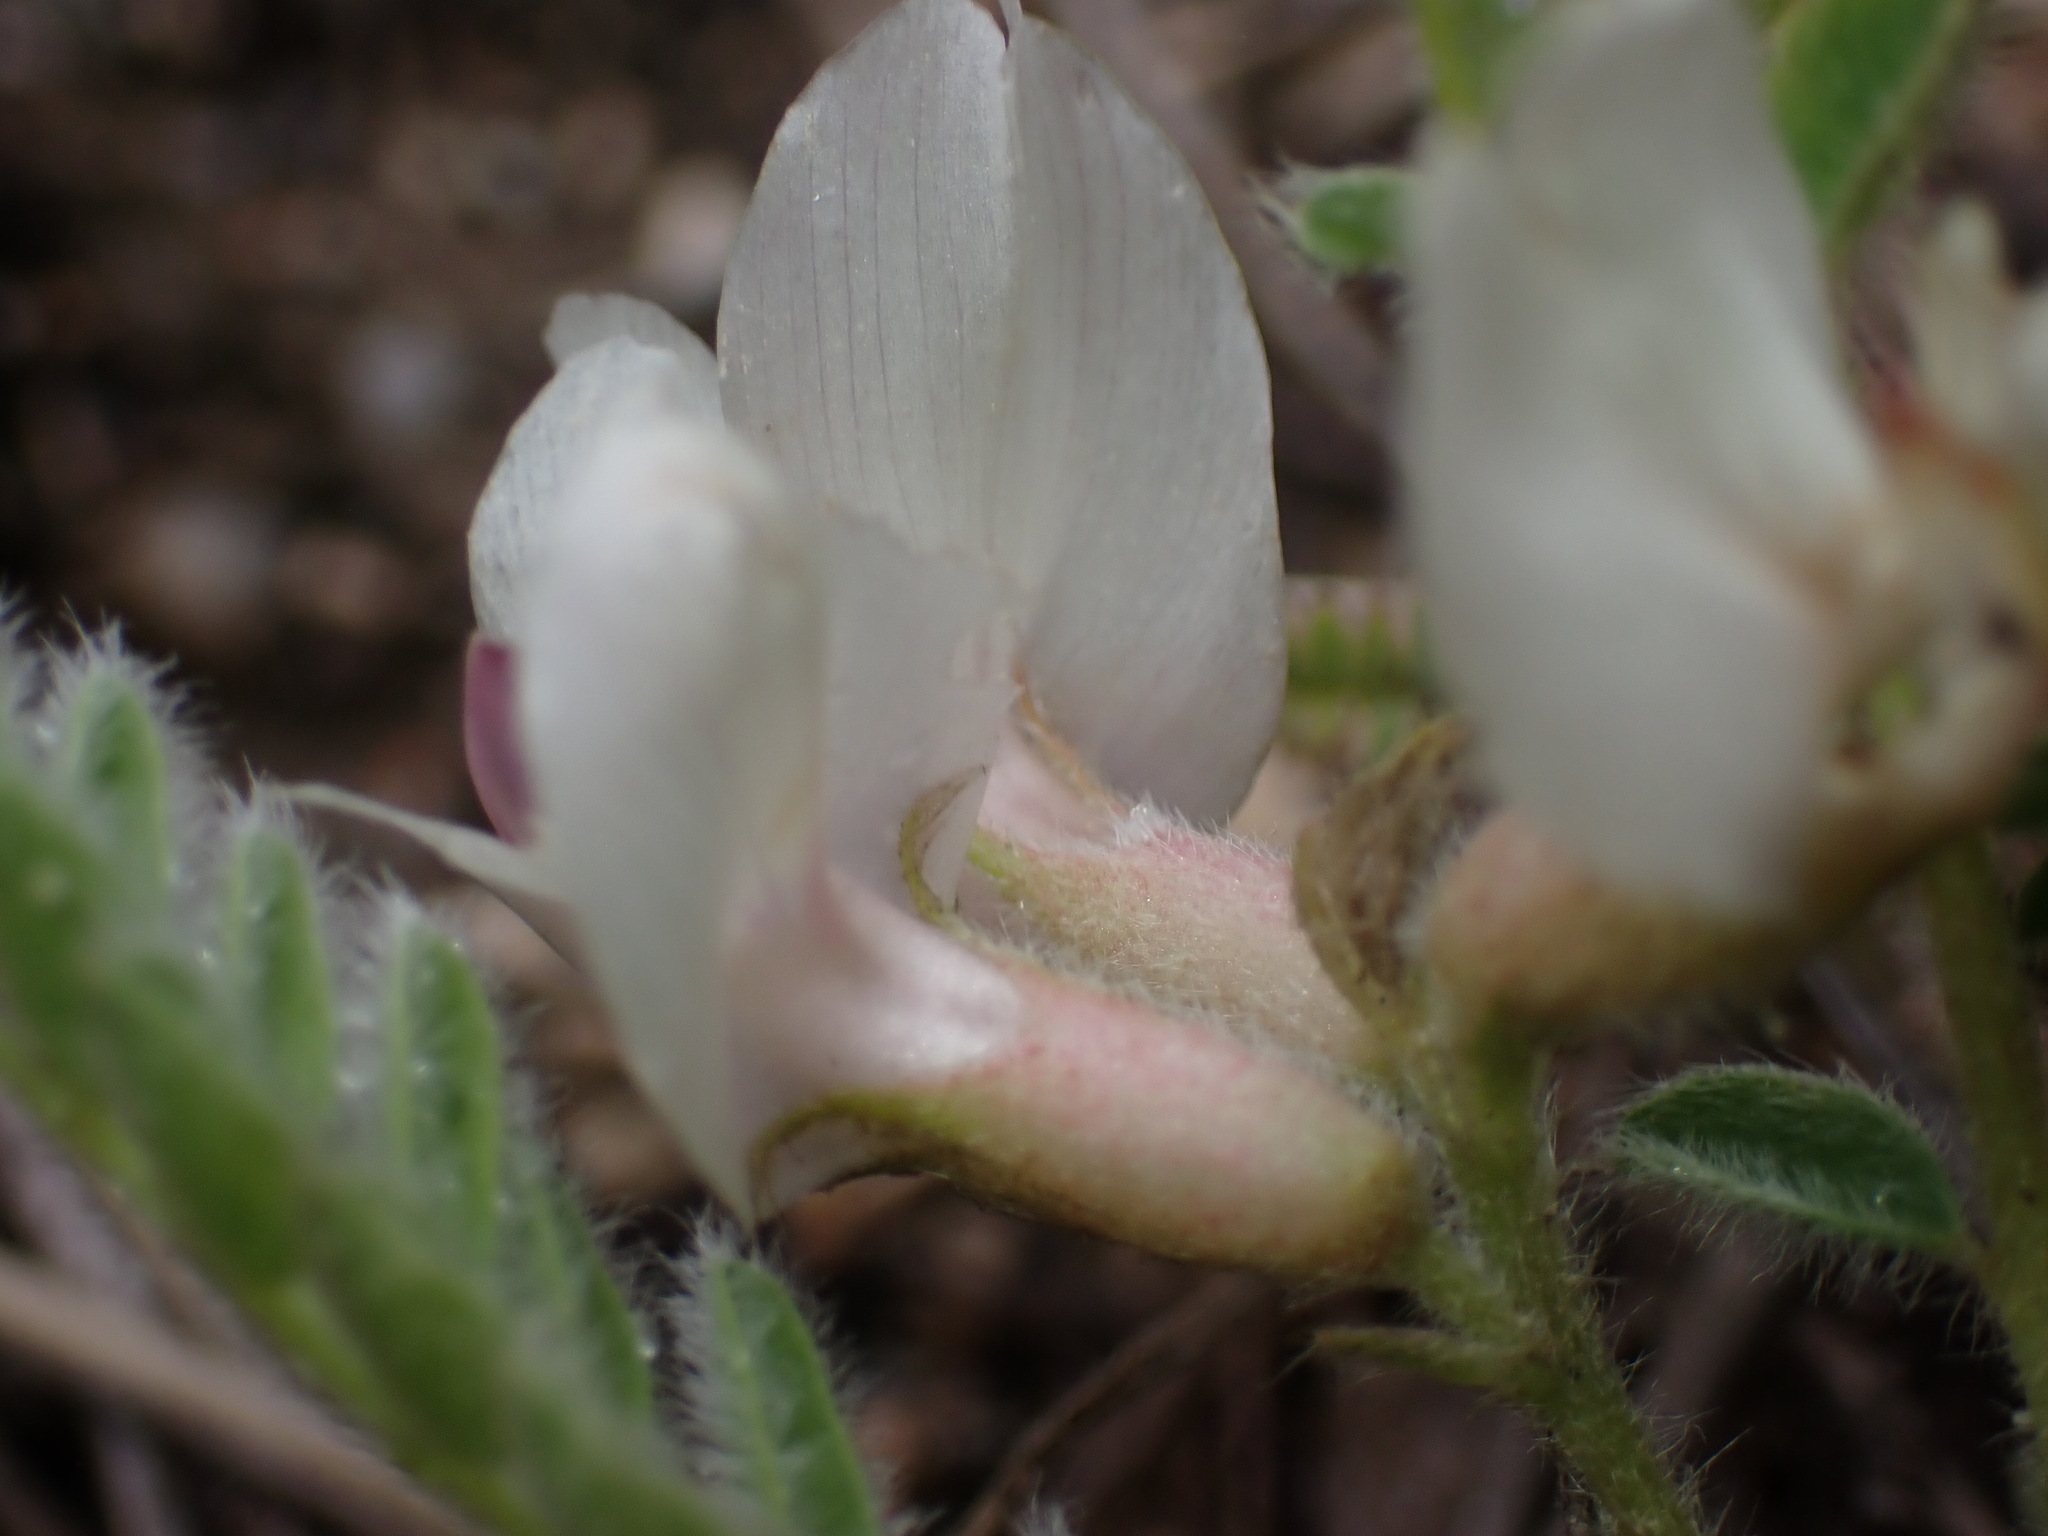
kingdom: Plantae
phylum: Tracheophyta
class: Magnoliopsida
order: Fabales
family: Fabaceae
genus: Astragalus
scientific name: Astragalus parryi
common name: Parry milk-vetch
